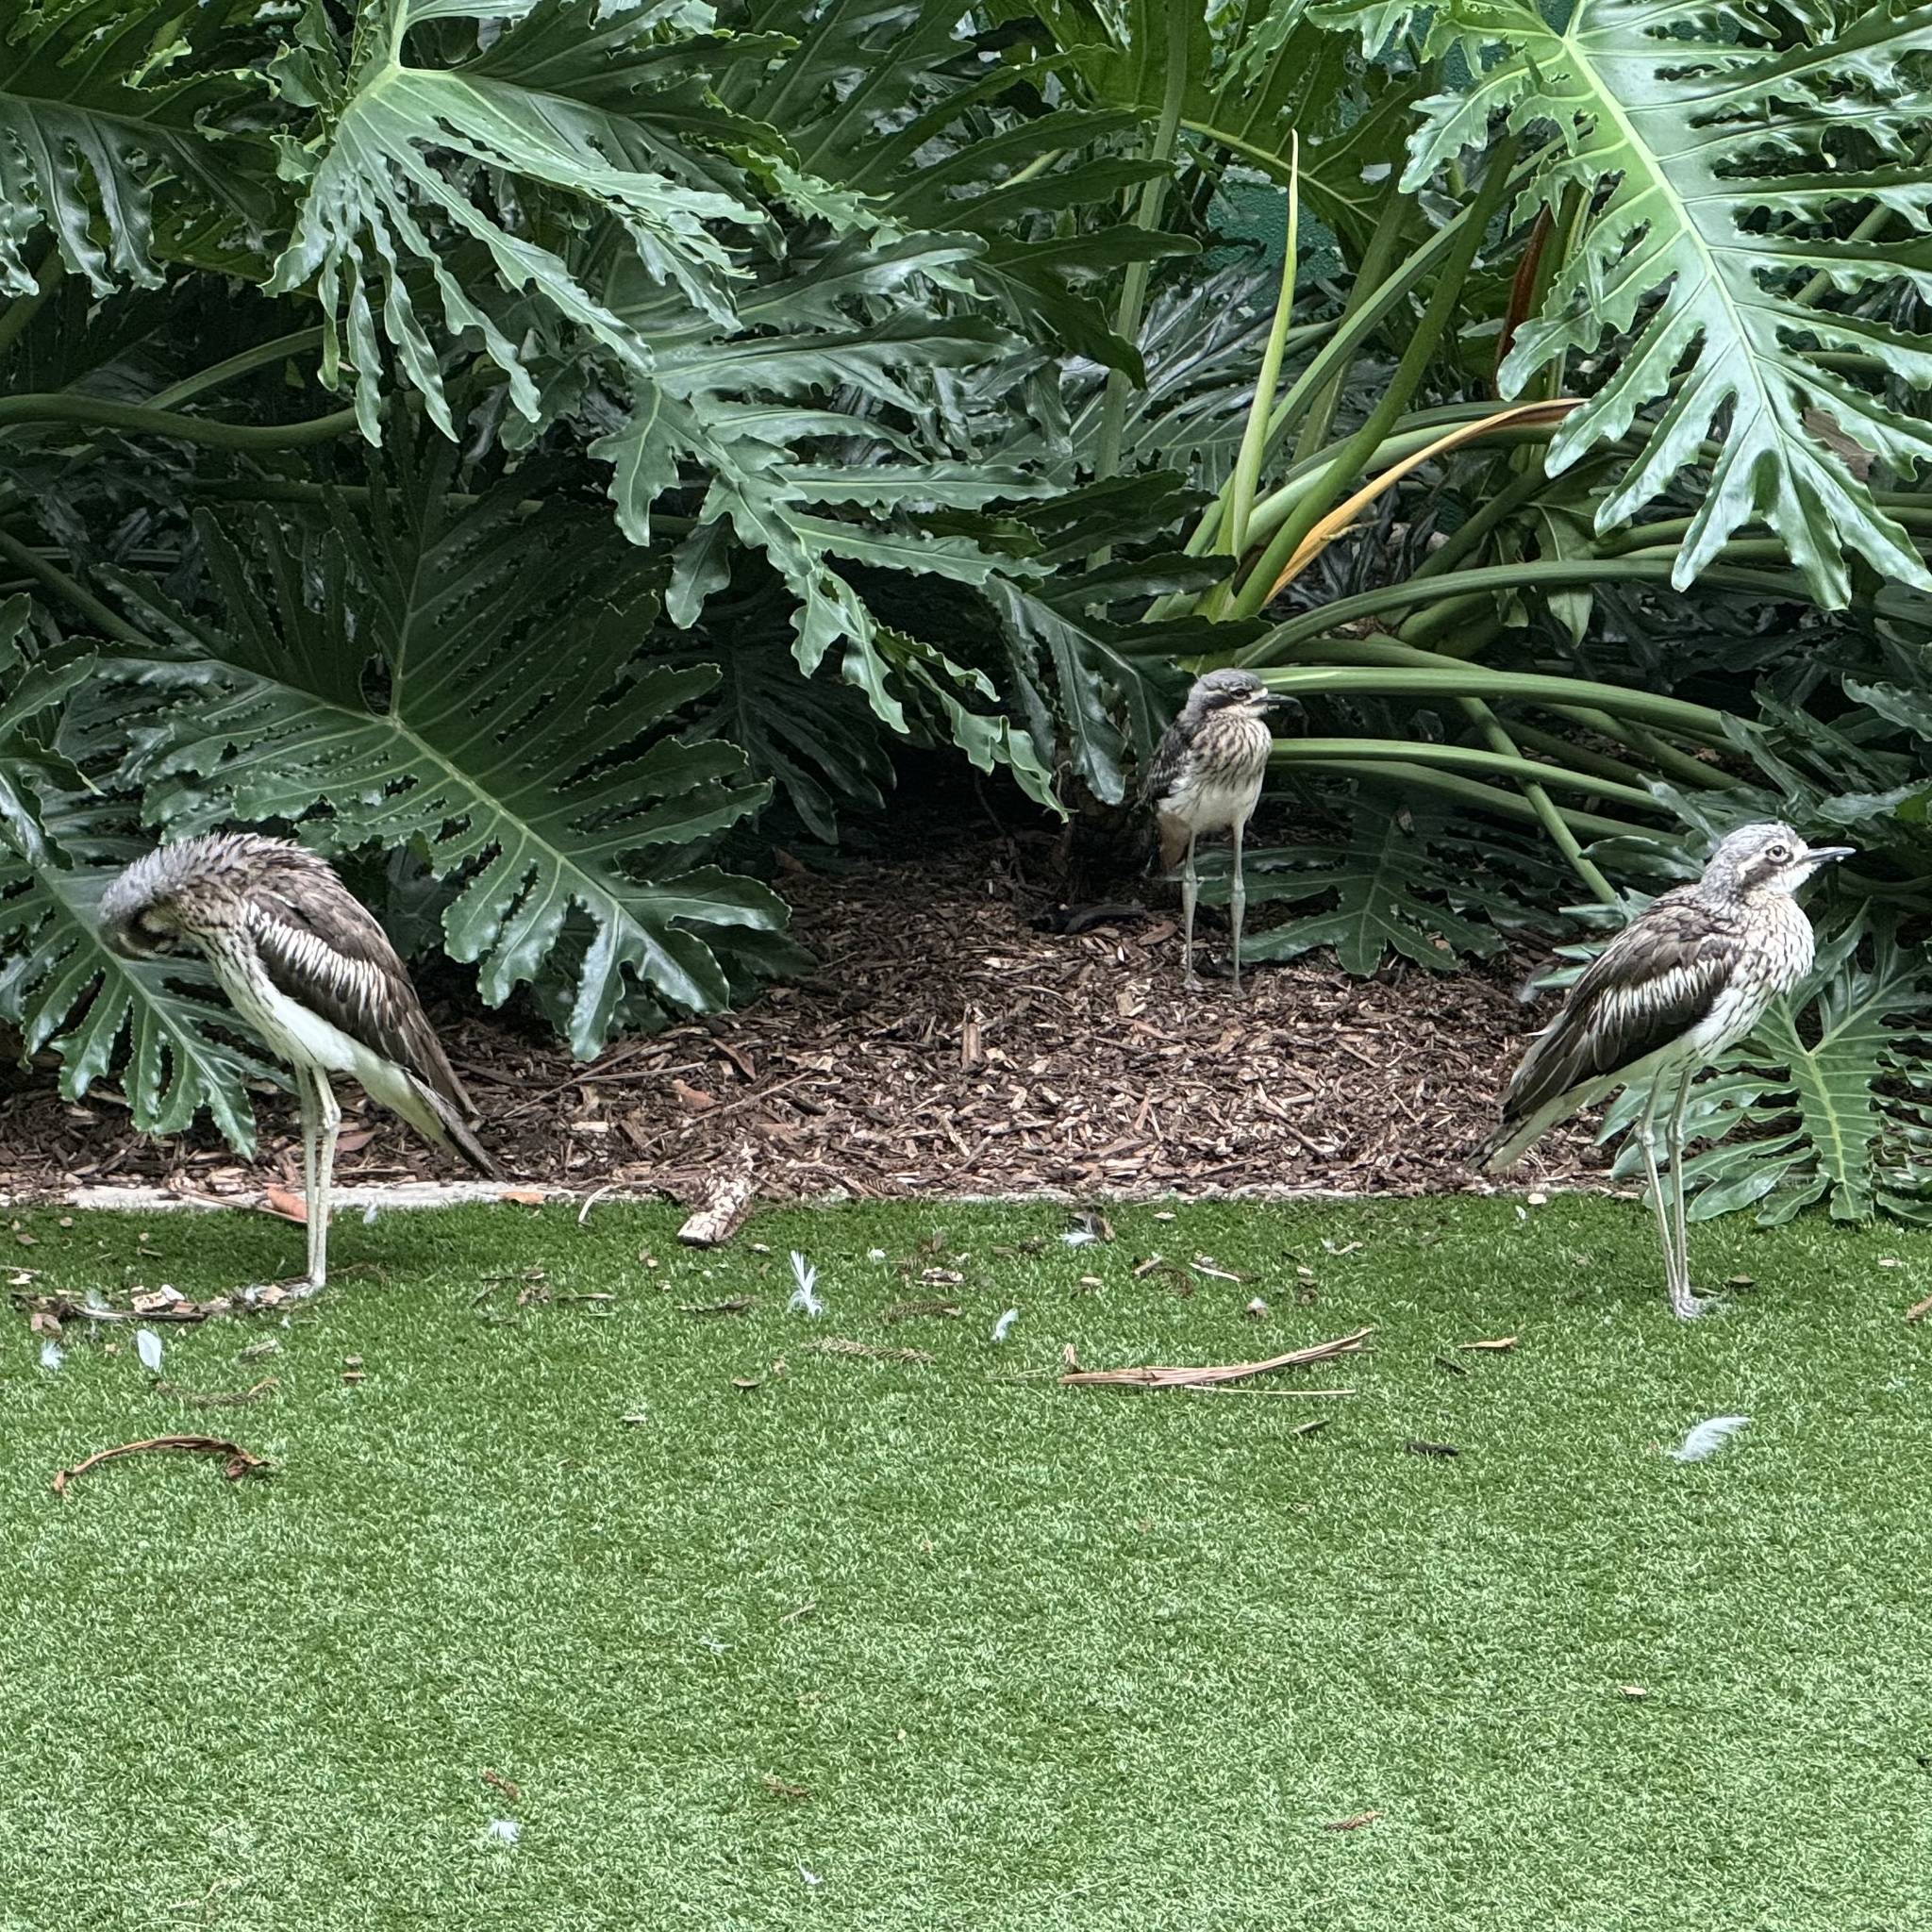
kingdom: Animalia
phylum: Chordata
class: Aves
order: Charadriiformes
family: Burhinidae
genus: Burhinus
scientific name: Burhinus grallarius
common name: Bush stone-curlew
